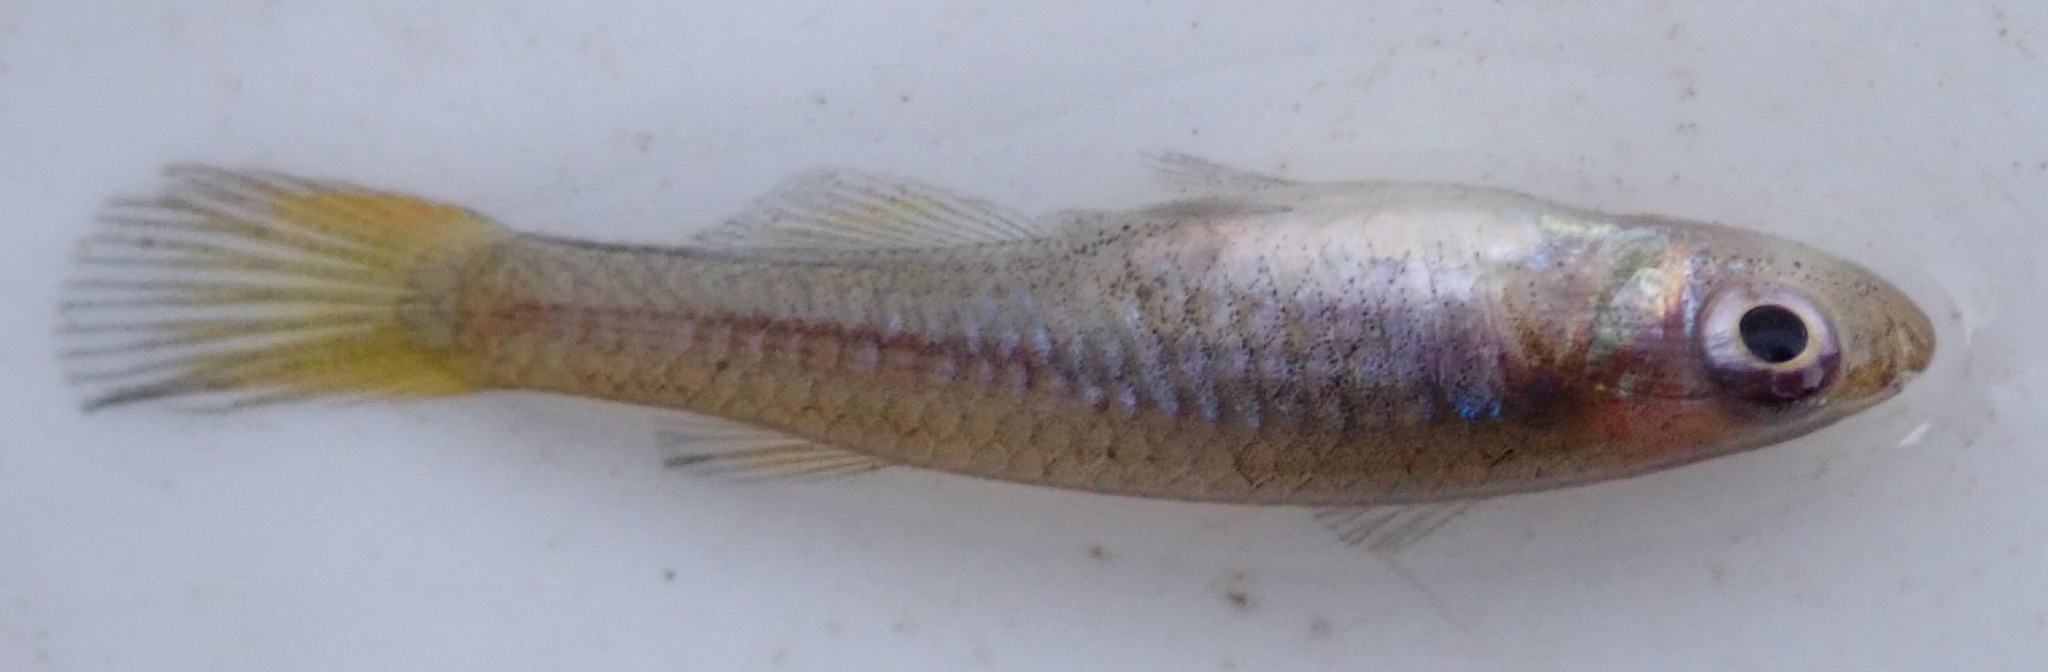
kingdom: Animalia
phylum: Chordata
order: Cyprinodontiformes
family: Poeciliidae
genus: Micropanchax
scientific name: Micropanchax johnstoni
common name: Johnston's topminnow
